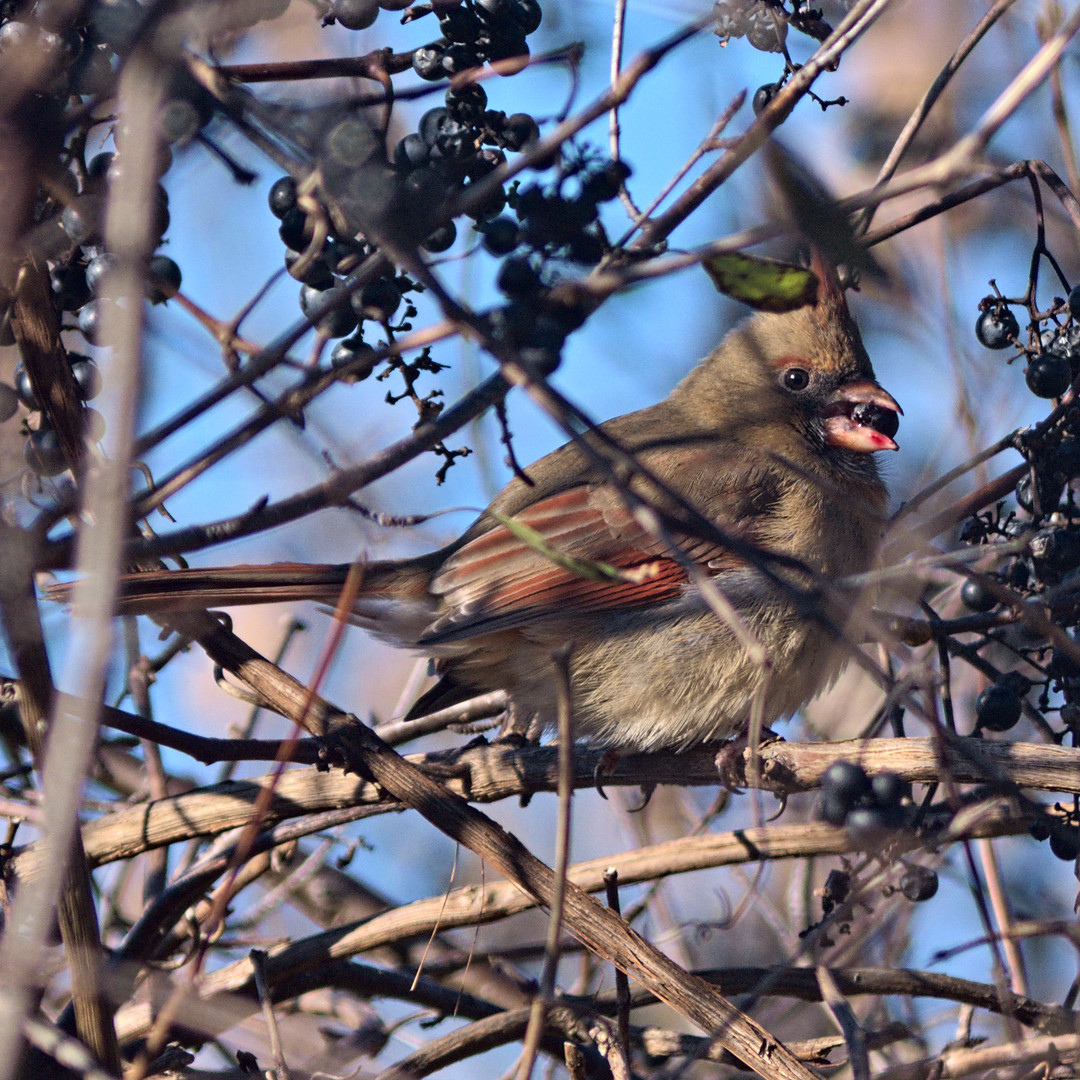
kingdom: Animalia
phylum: Chordata
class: Aves
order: Passeriformes
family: Cardinalidae
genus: Cardinalis
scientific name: Cardinalis cardinalis
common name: Northern cardinal
